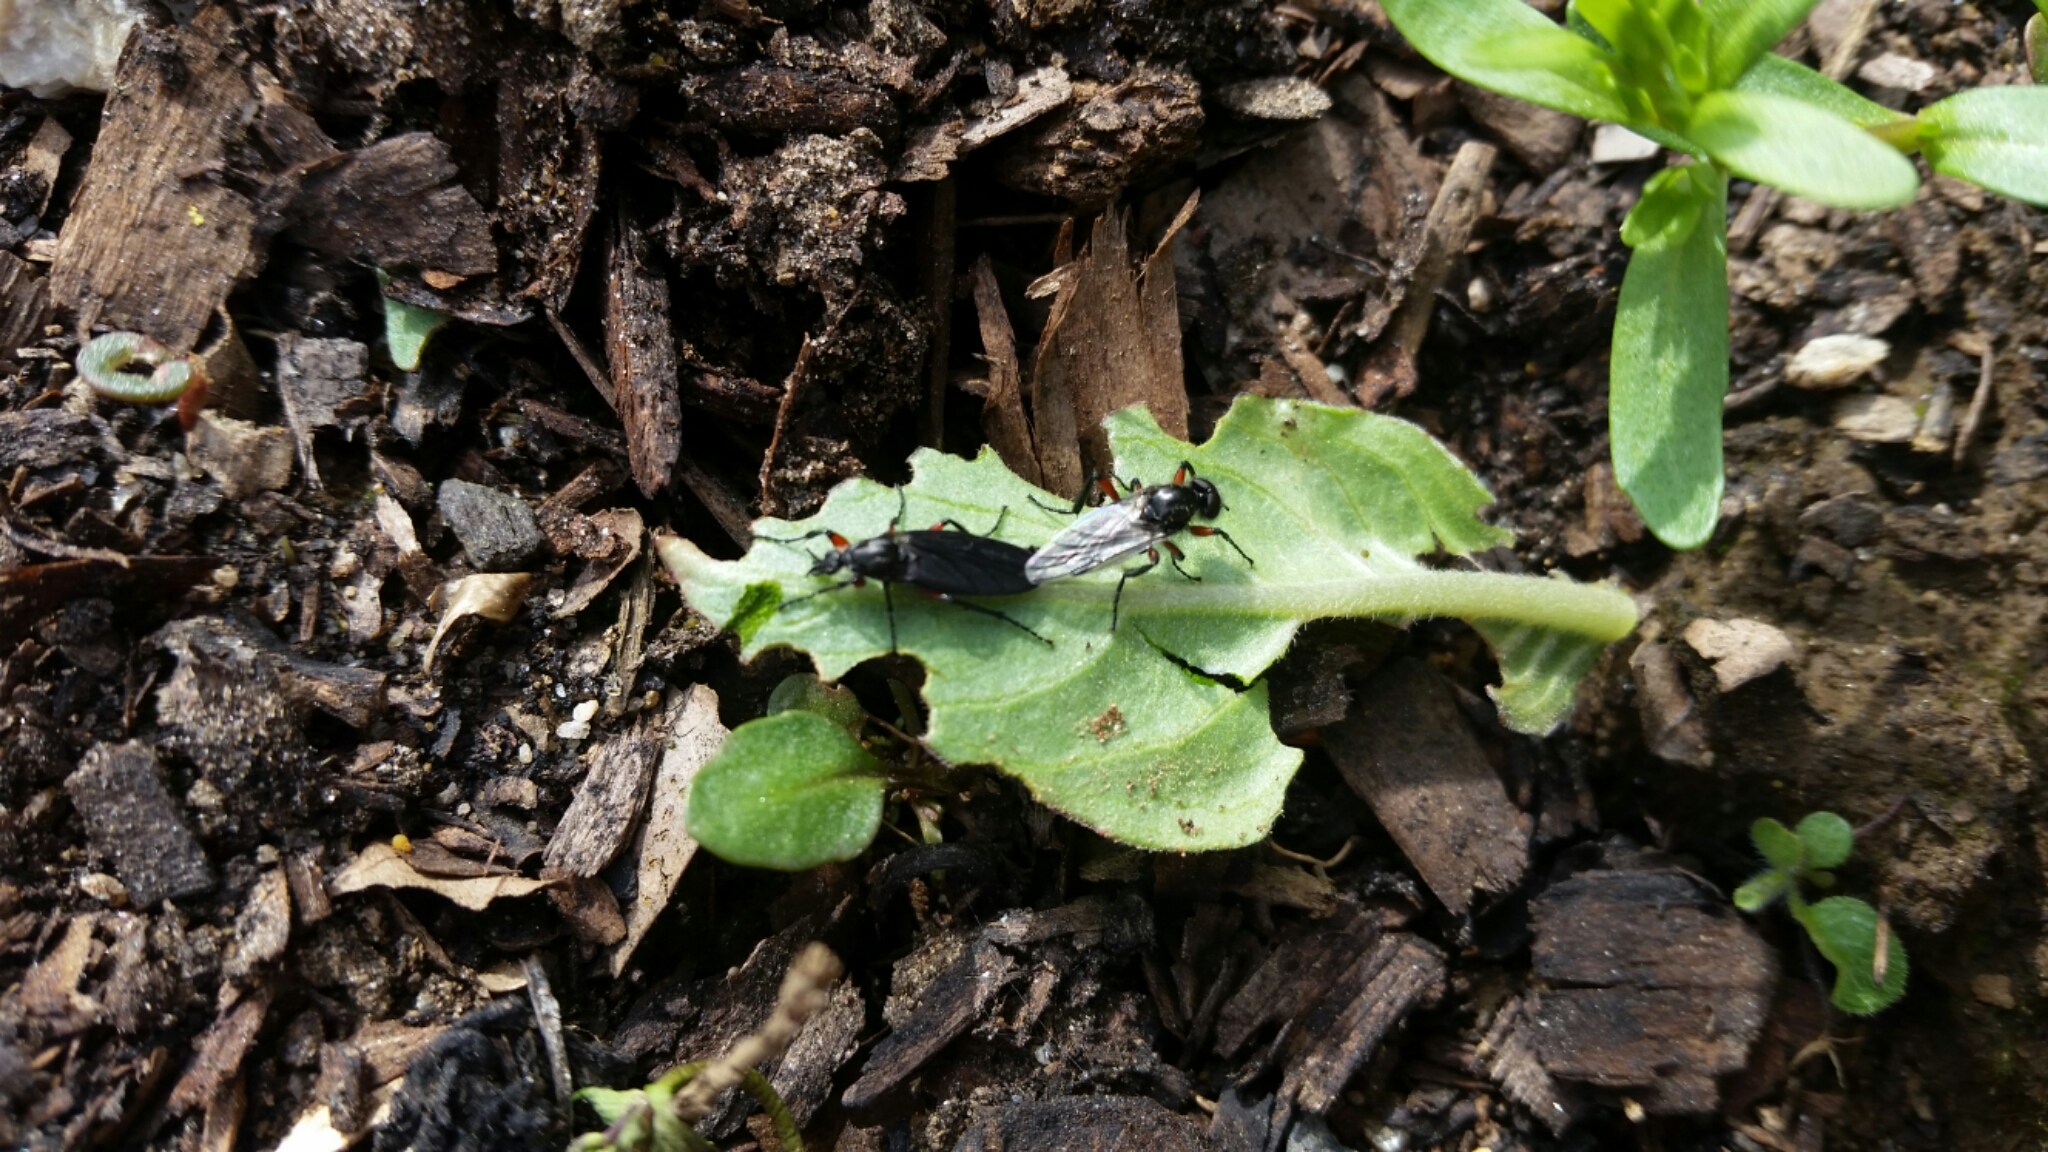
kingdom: Animalia
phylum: Arthropoda
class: Insecta
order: Diptera
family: Bibionidae
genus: Bibio
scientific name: Bibio femoratus
